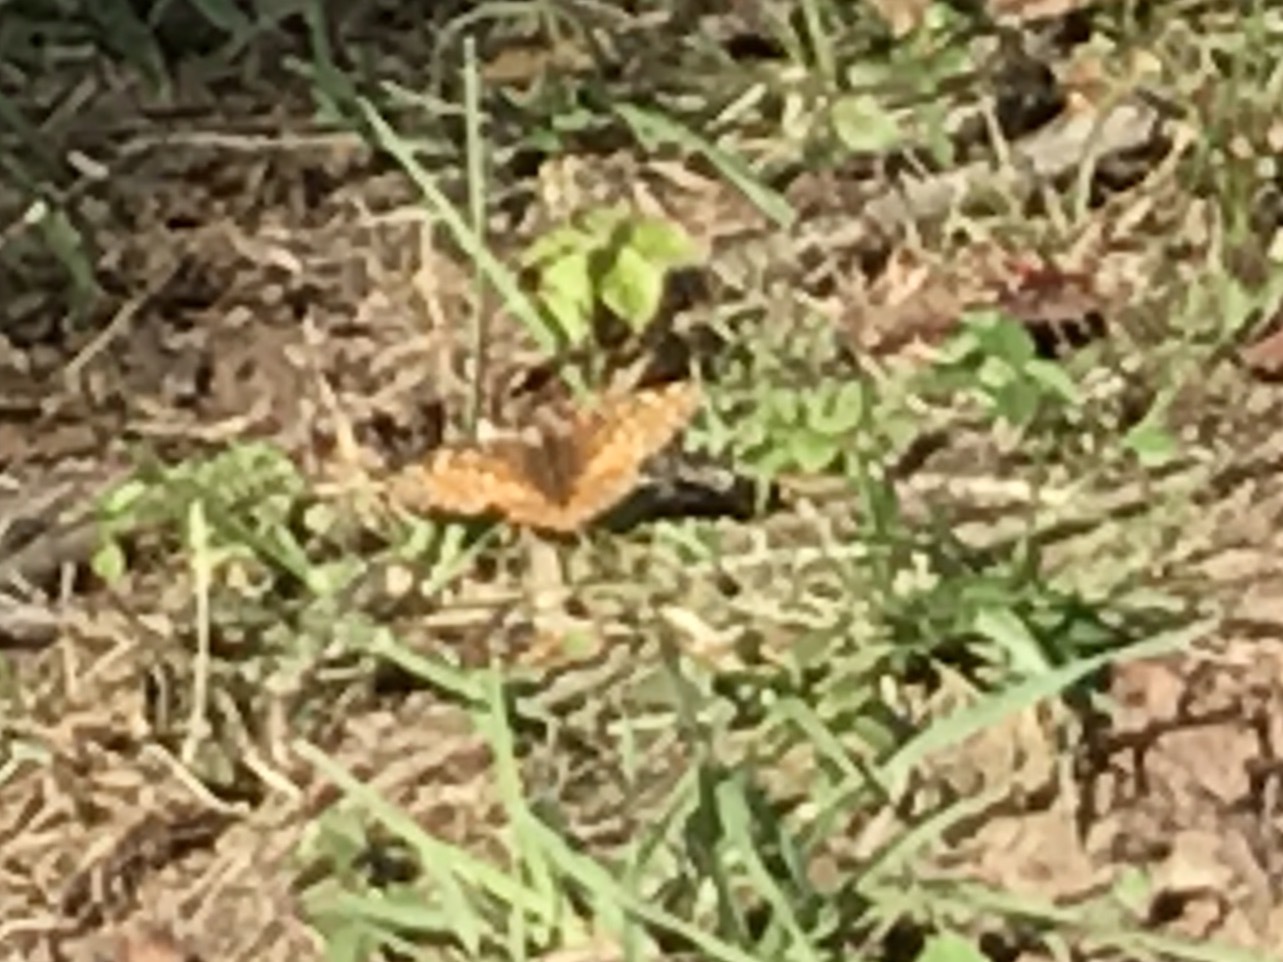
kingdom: Animalia
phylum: Arthropoda
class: Insecta
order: Lepidoptera
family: Nymphalidae
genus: Euptoieta
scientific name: Euptoieta claudia
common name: Variegated fritillary
